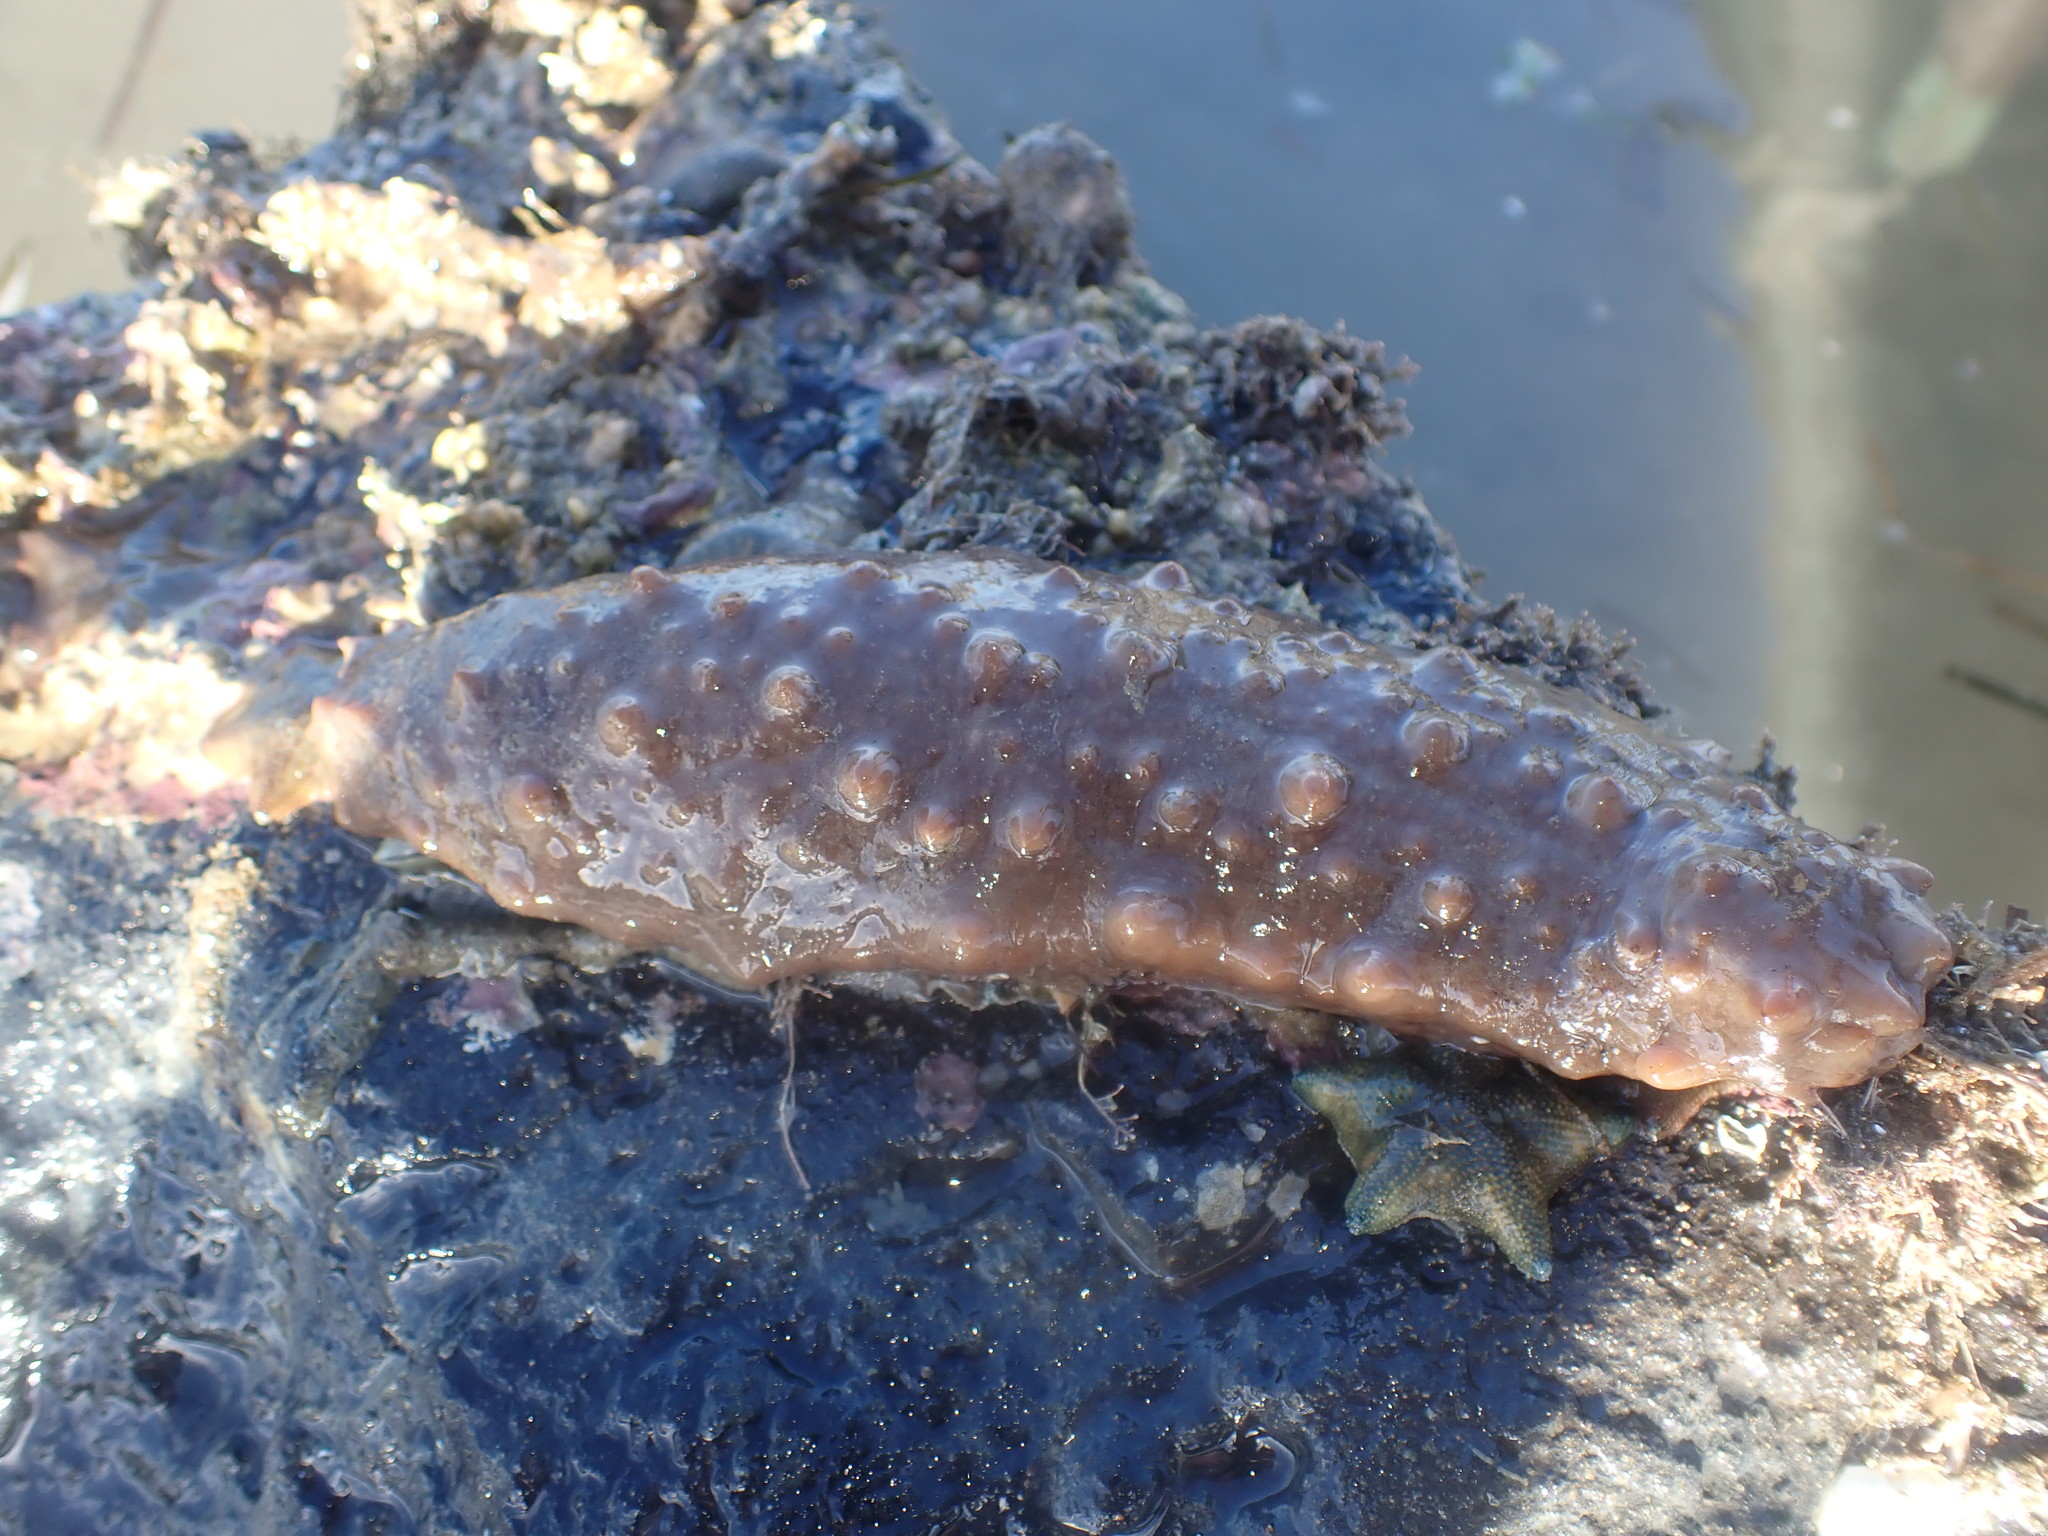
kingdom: Animalia
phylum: Echinodermata
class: Holothuroidea
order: Synallactida
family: Stichopodidae
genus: Australostichopus
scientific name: Australostichopus mollis
